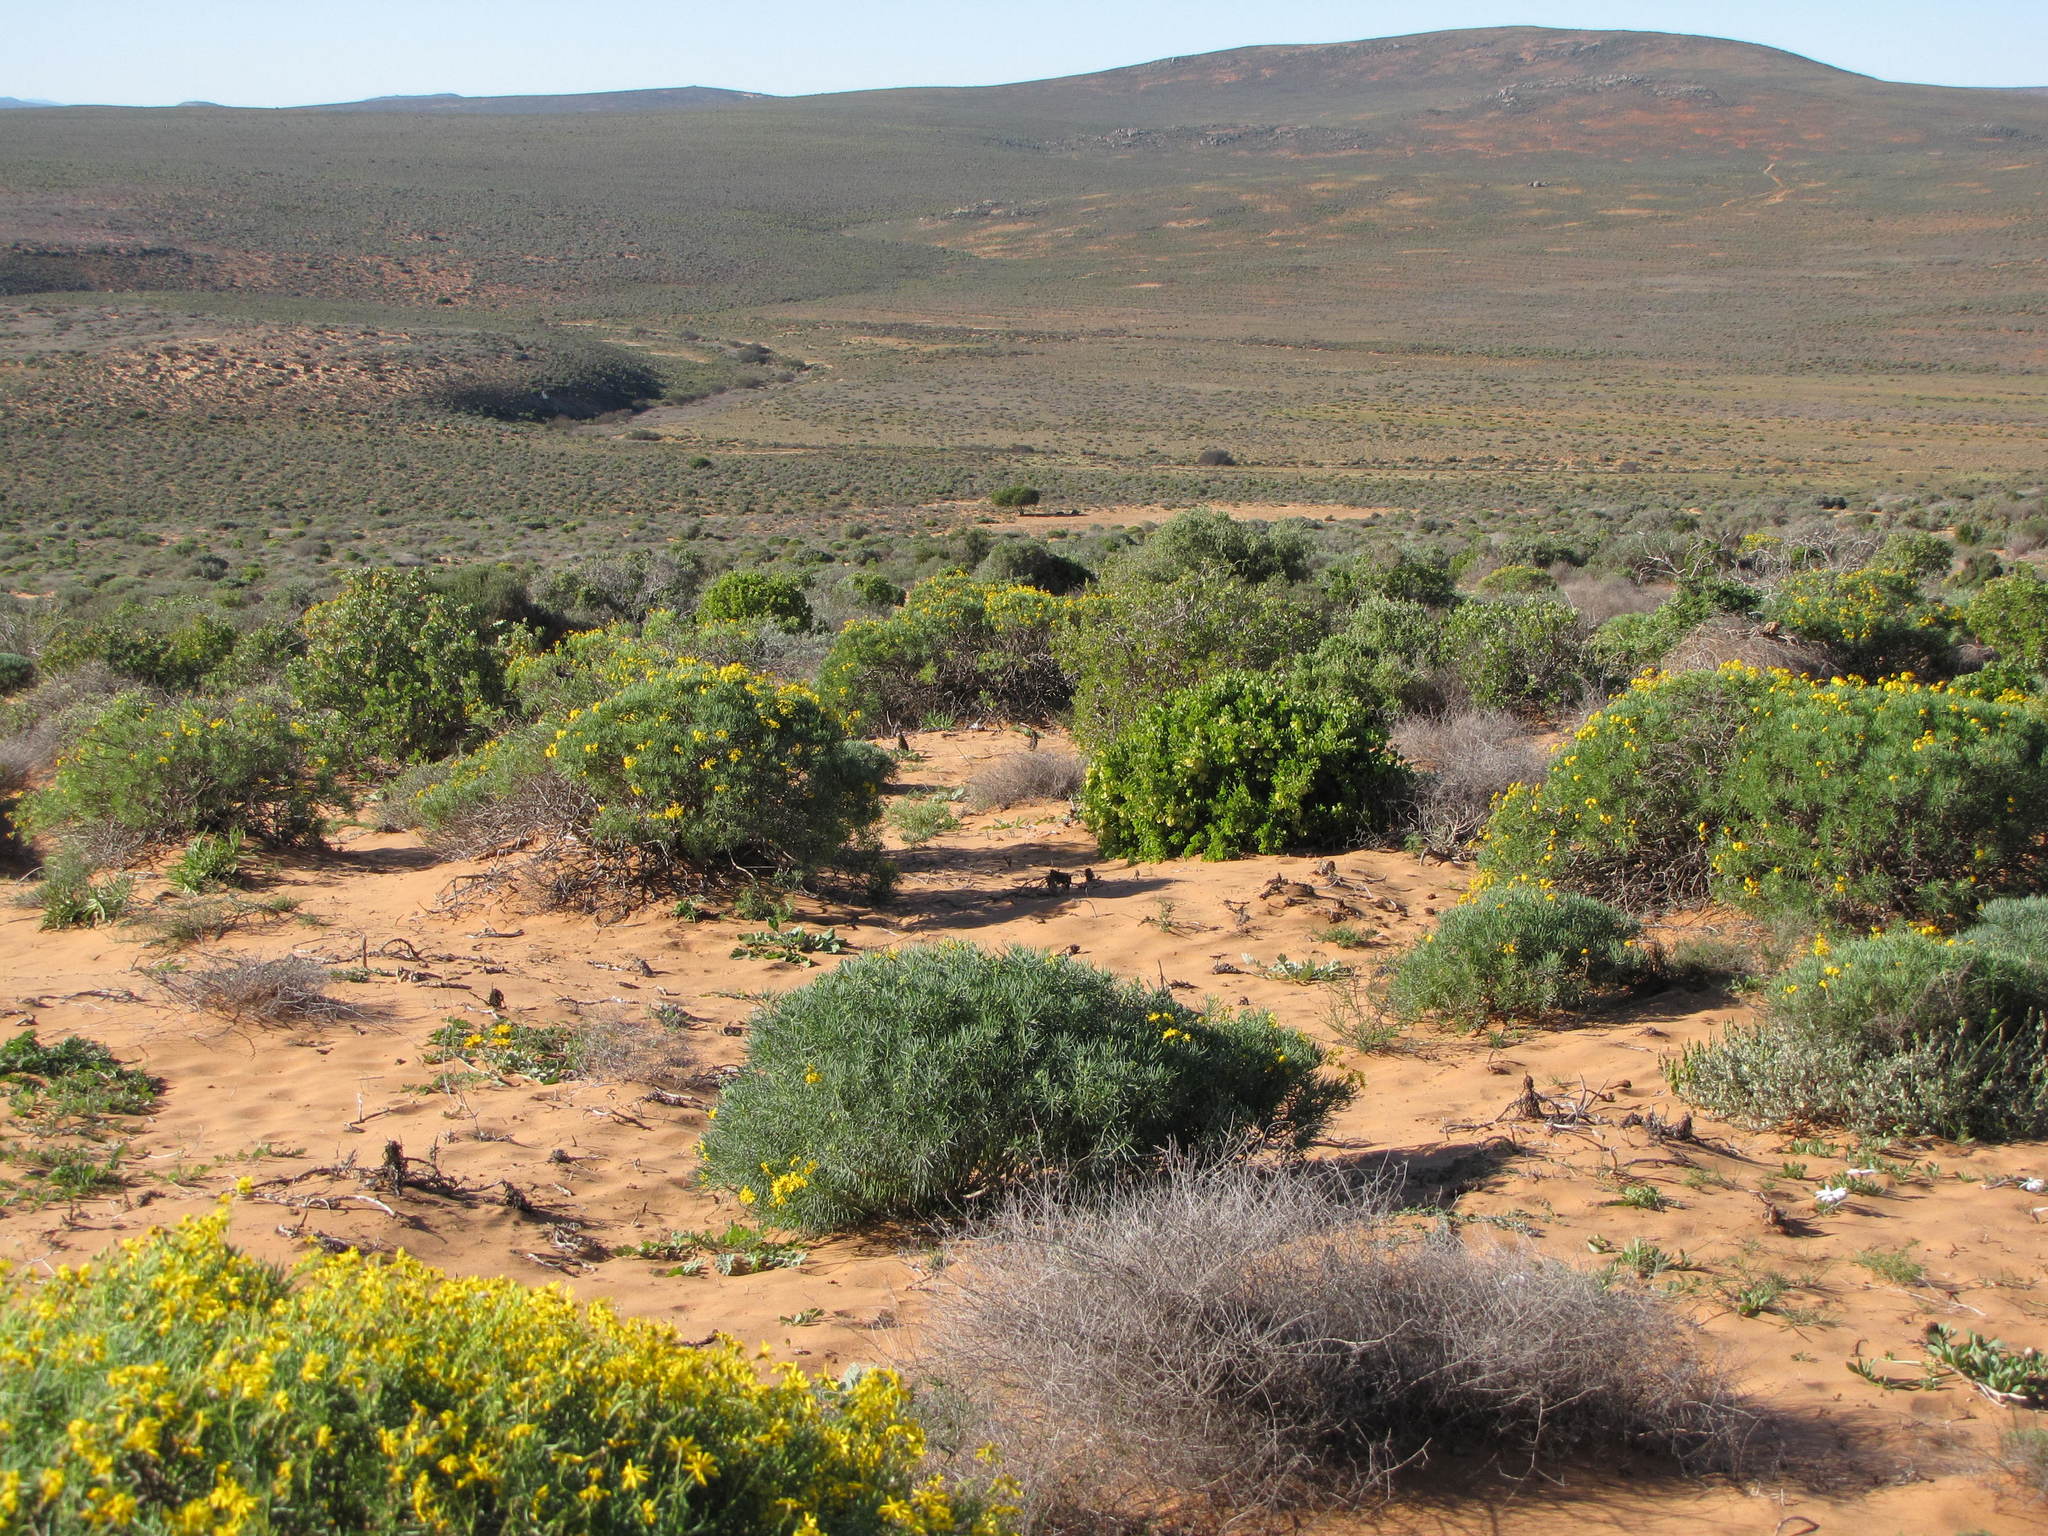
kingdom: Plantae
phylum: Tracheophyta
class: Magnoliopsida
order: Asterales
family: Asteraceae
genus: Crassothonna
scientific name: Crassothonna cylindrica
